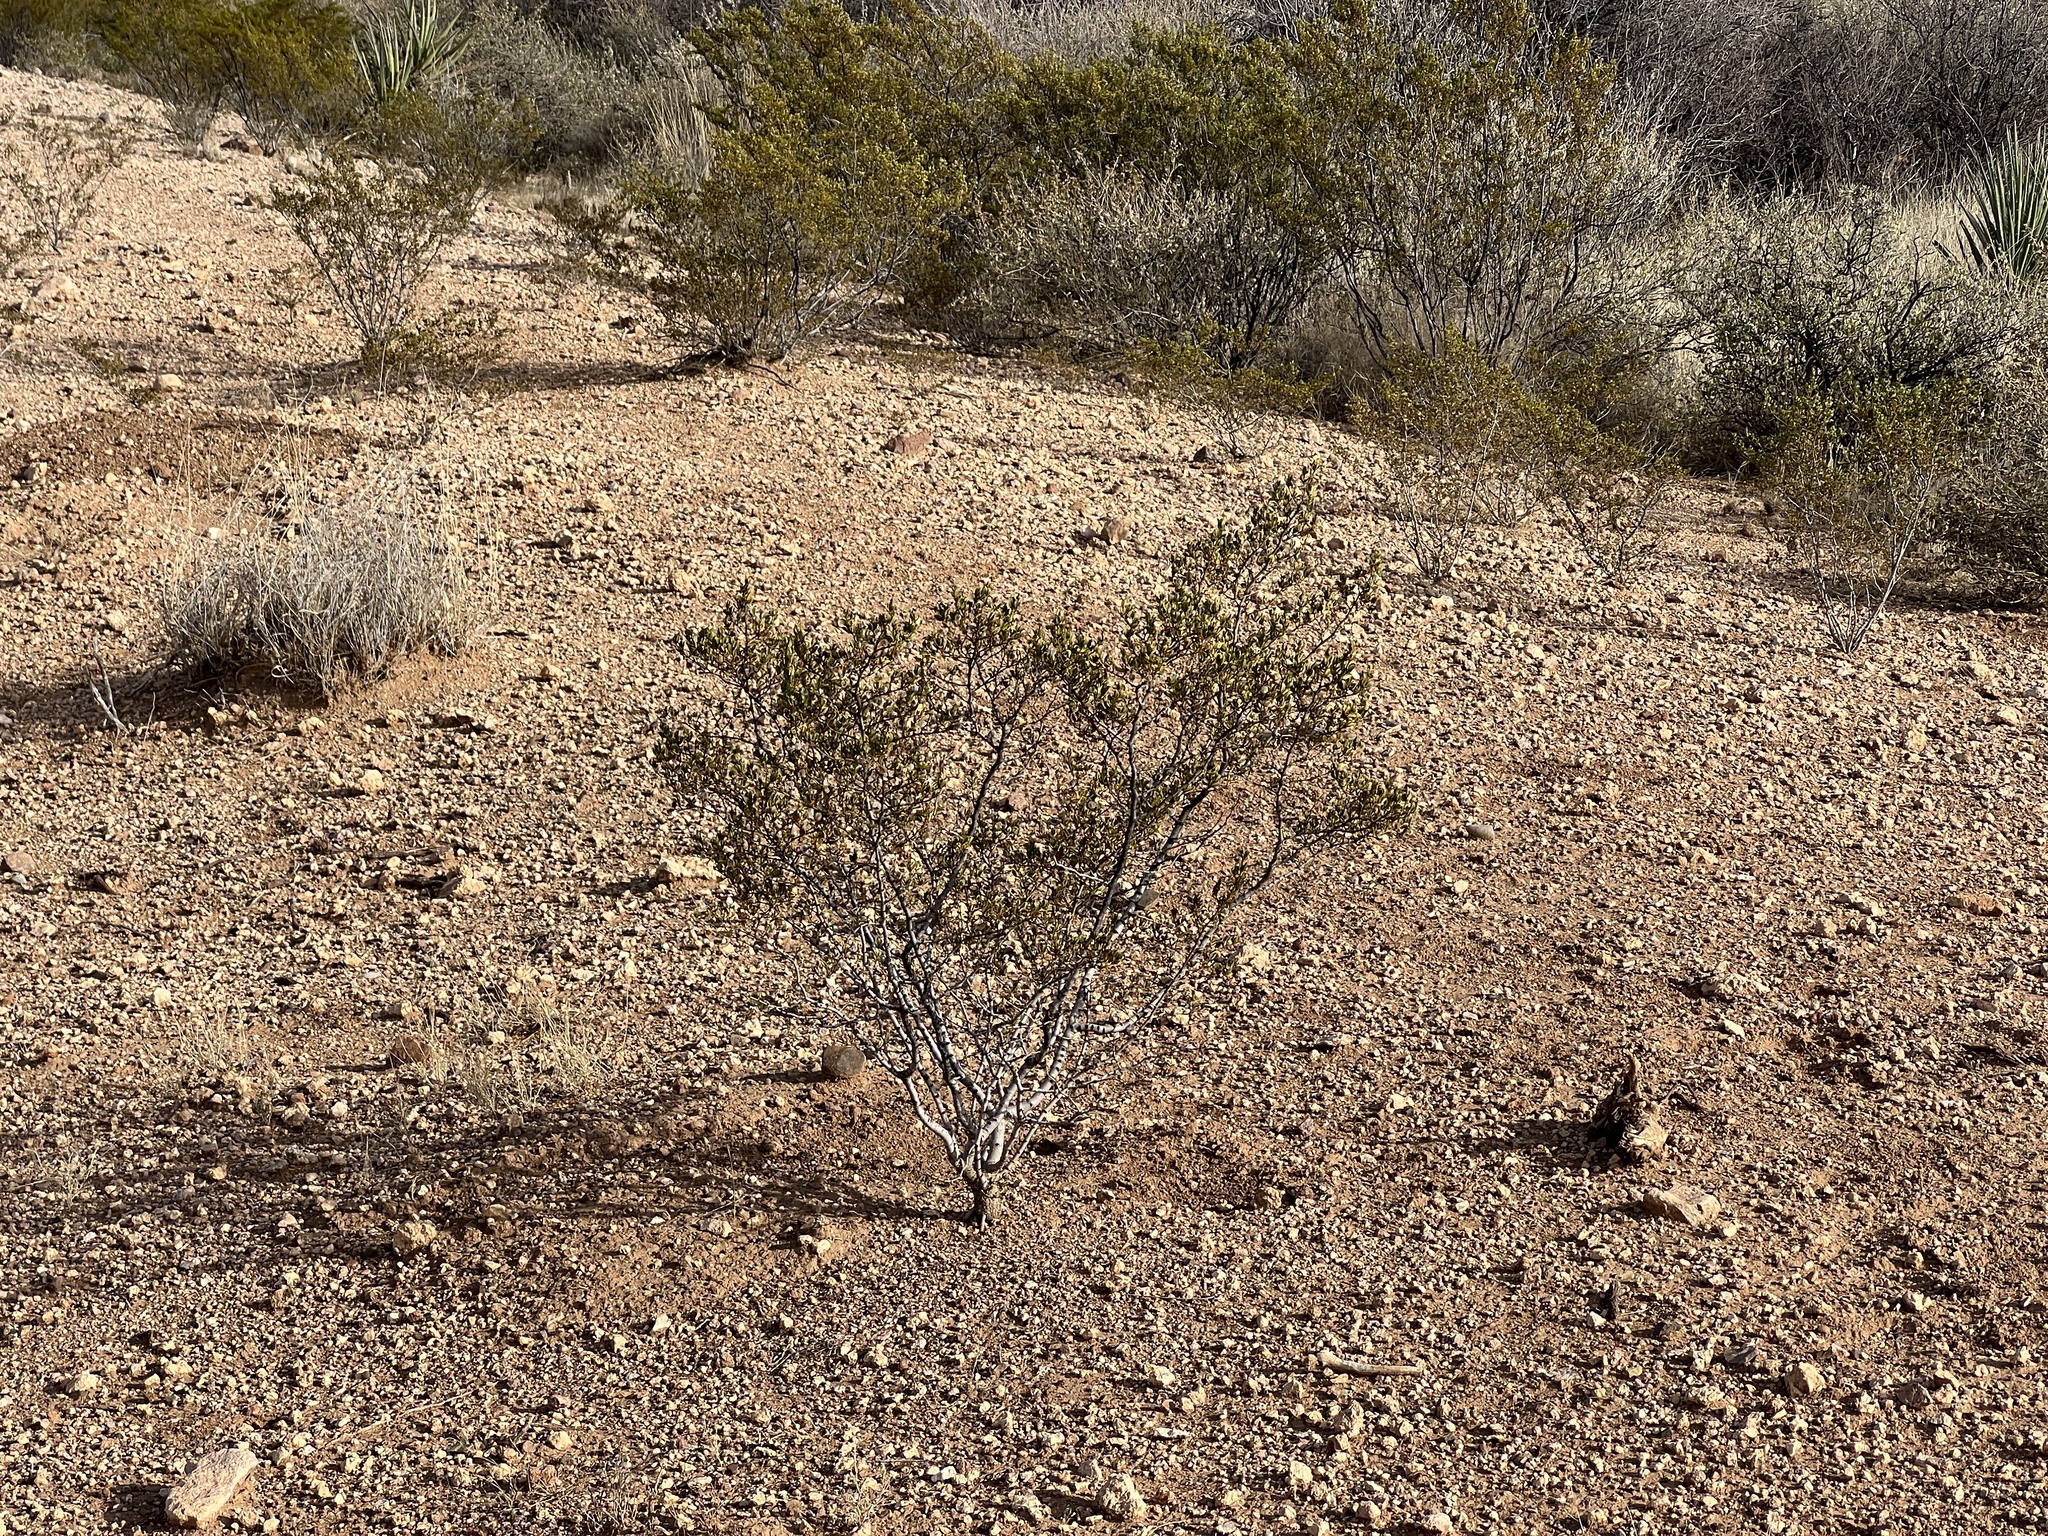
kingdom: Plantae
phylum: Tracheophyta
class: Magnoliopsida
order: Zygophyllales
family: Zygophyllaceae
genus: Larrea
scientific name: Larrea tridentata
